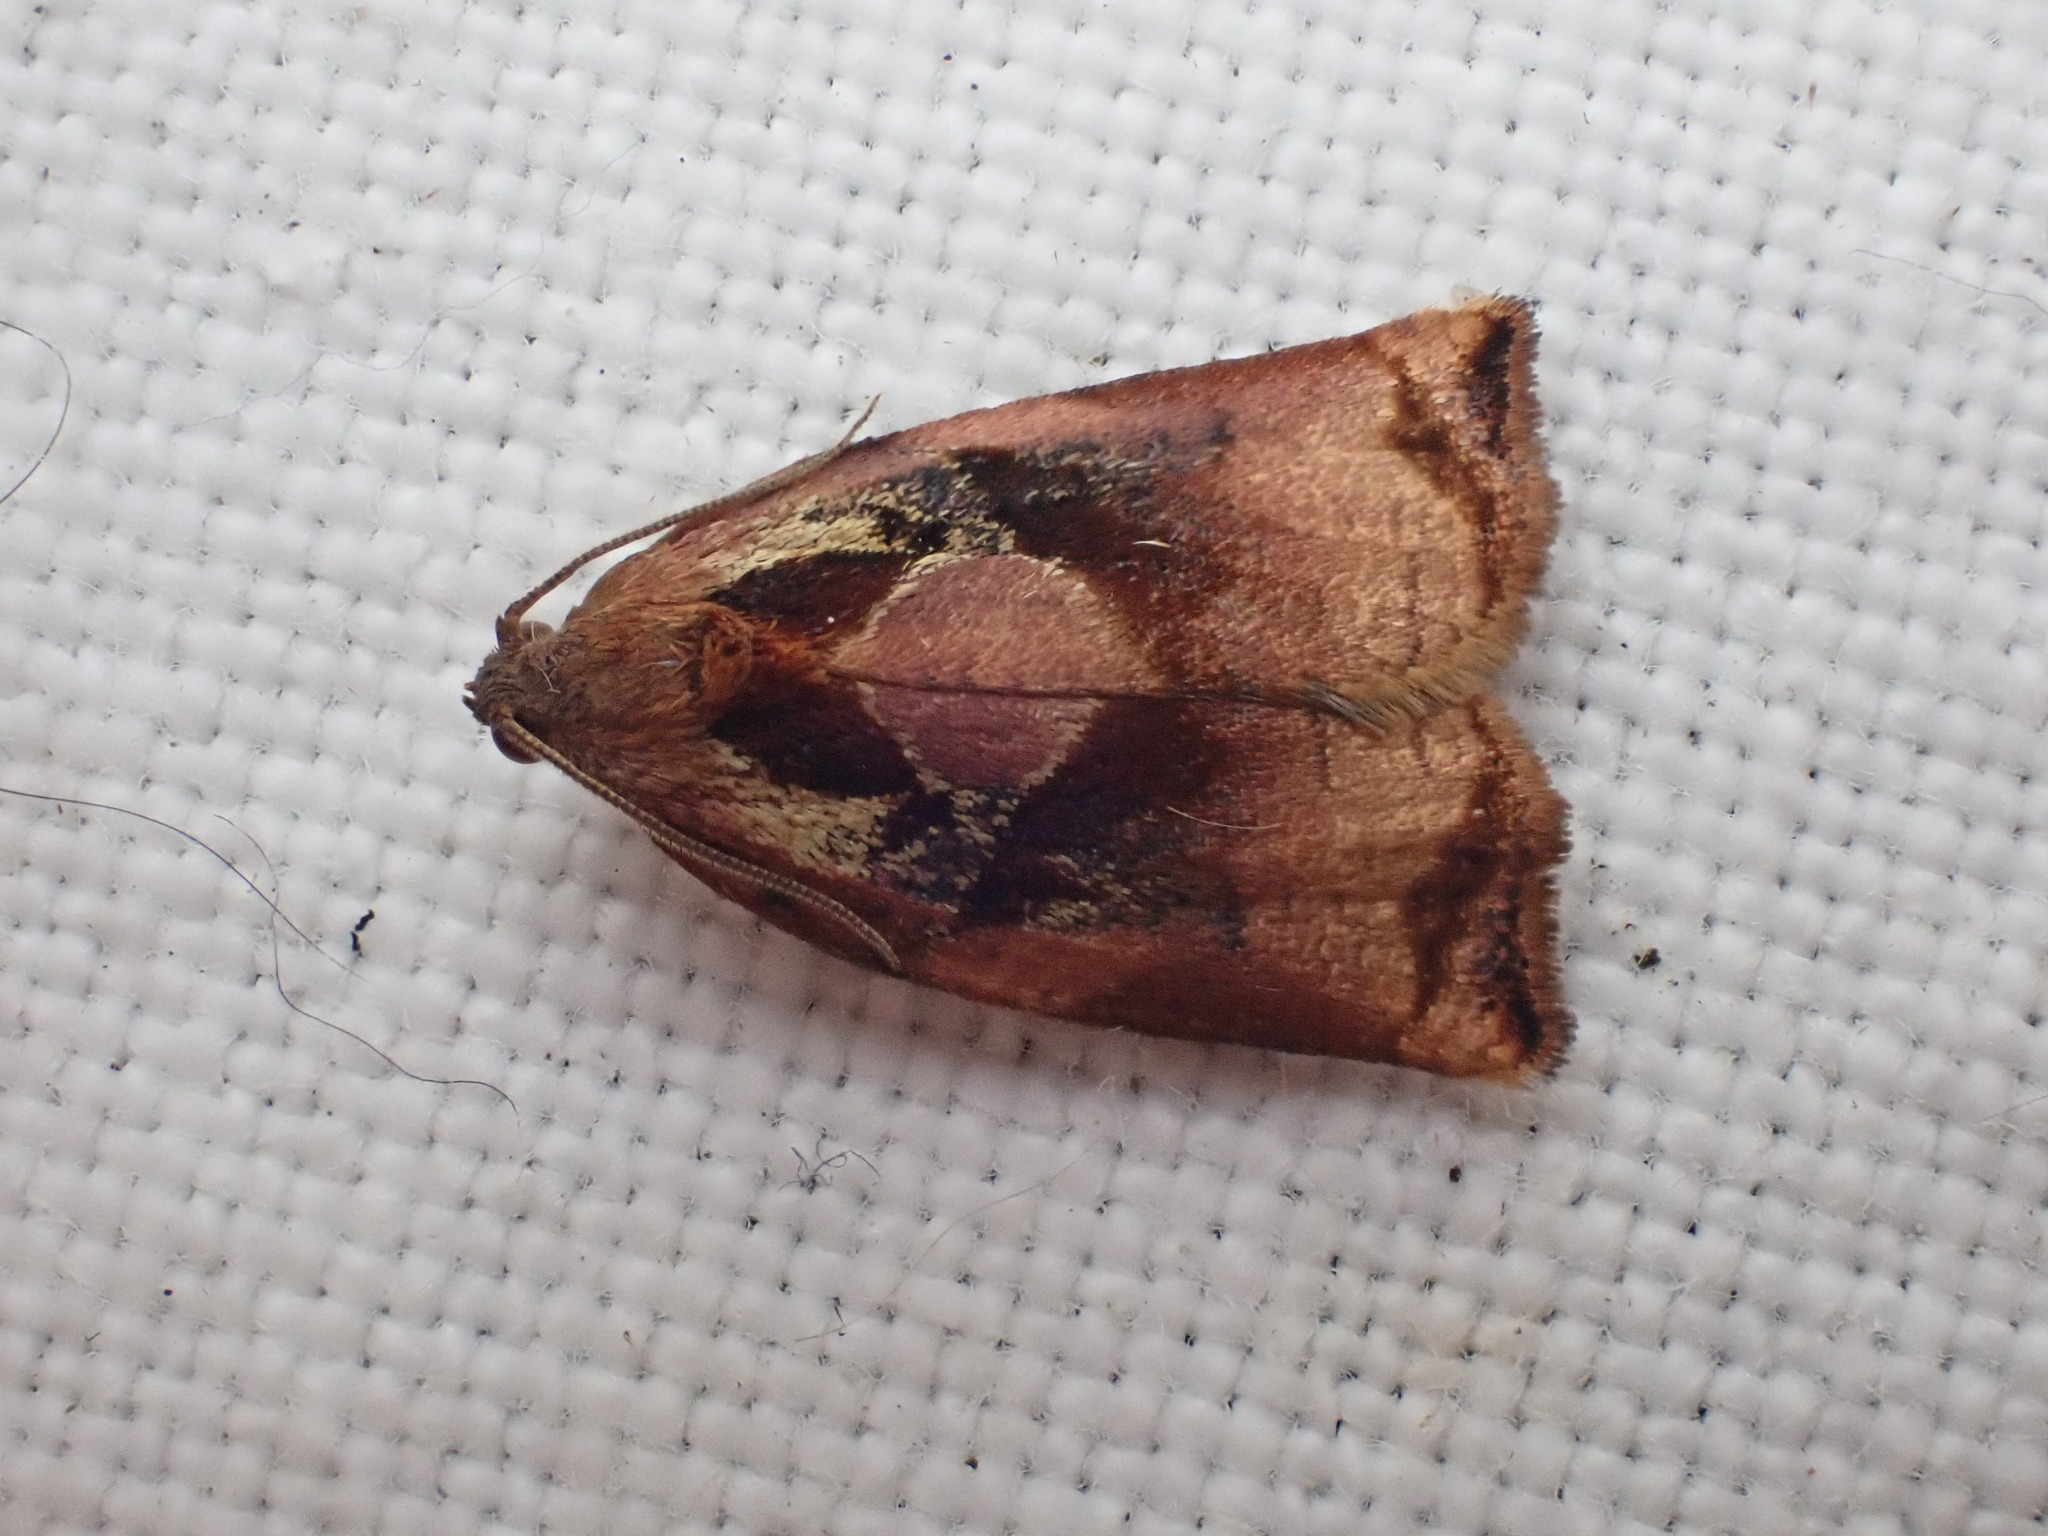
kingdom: Animalia
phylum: Arthropoda
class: Insecta
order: Lepidoptera
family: Tortricidae
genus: Archips
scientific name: Archips podana
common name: Large fruit-tree tortrix
